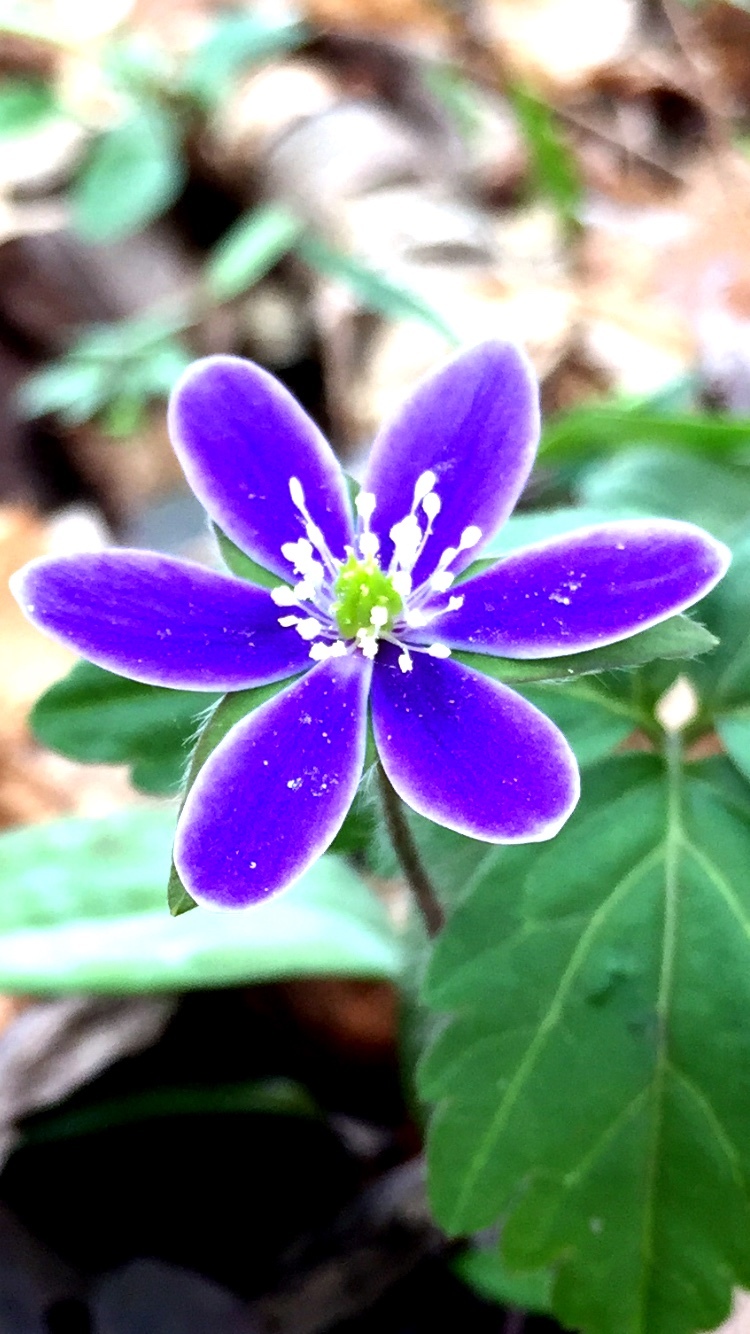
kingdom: Plantae
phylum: Tracheophyta
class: Magnoliopsida
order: Ranunculales
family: Ranunculaceae
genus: Hepatica
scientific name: Hepatica acutiloba
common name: Sharp-lobed hepatica
